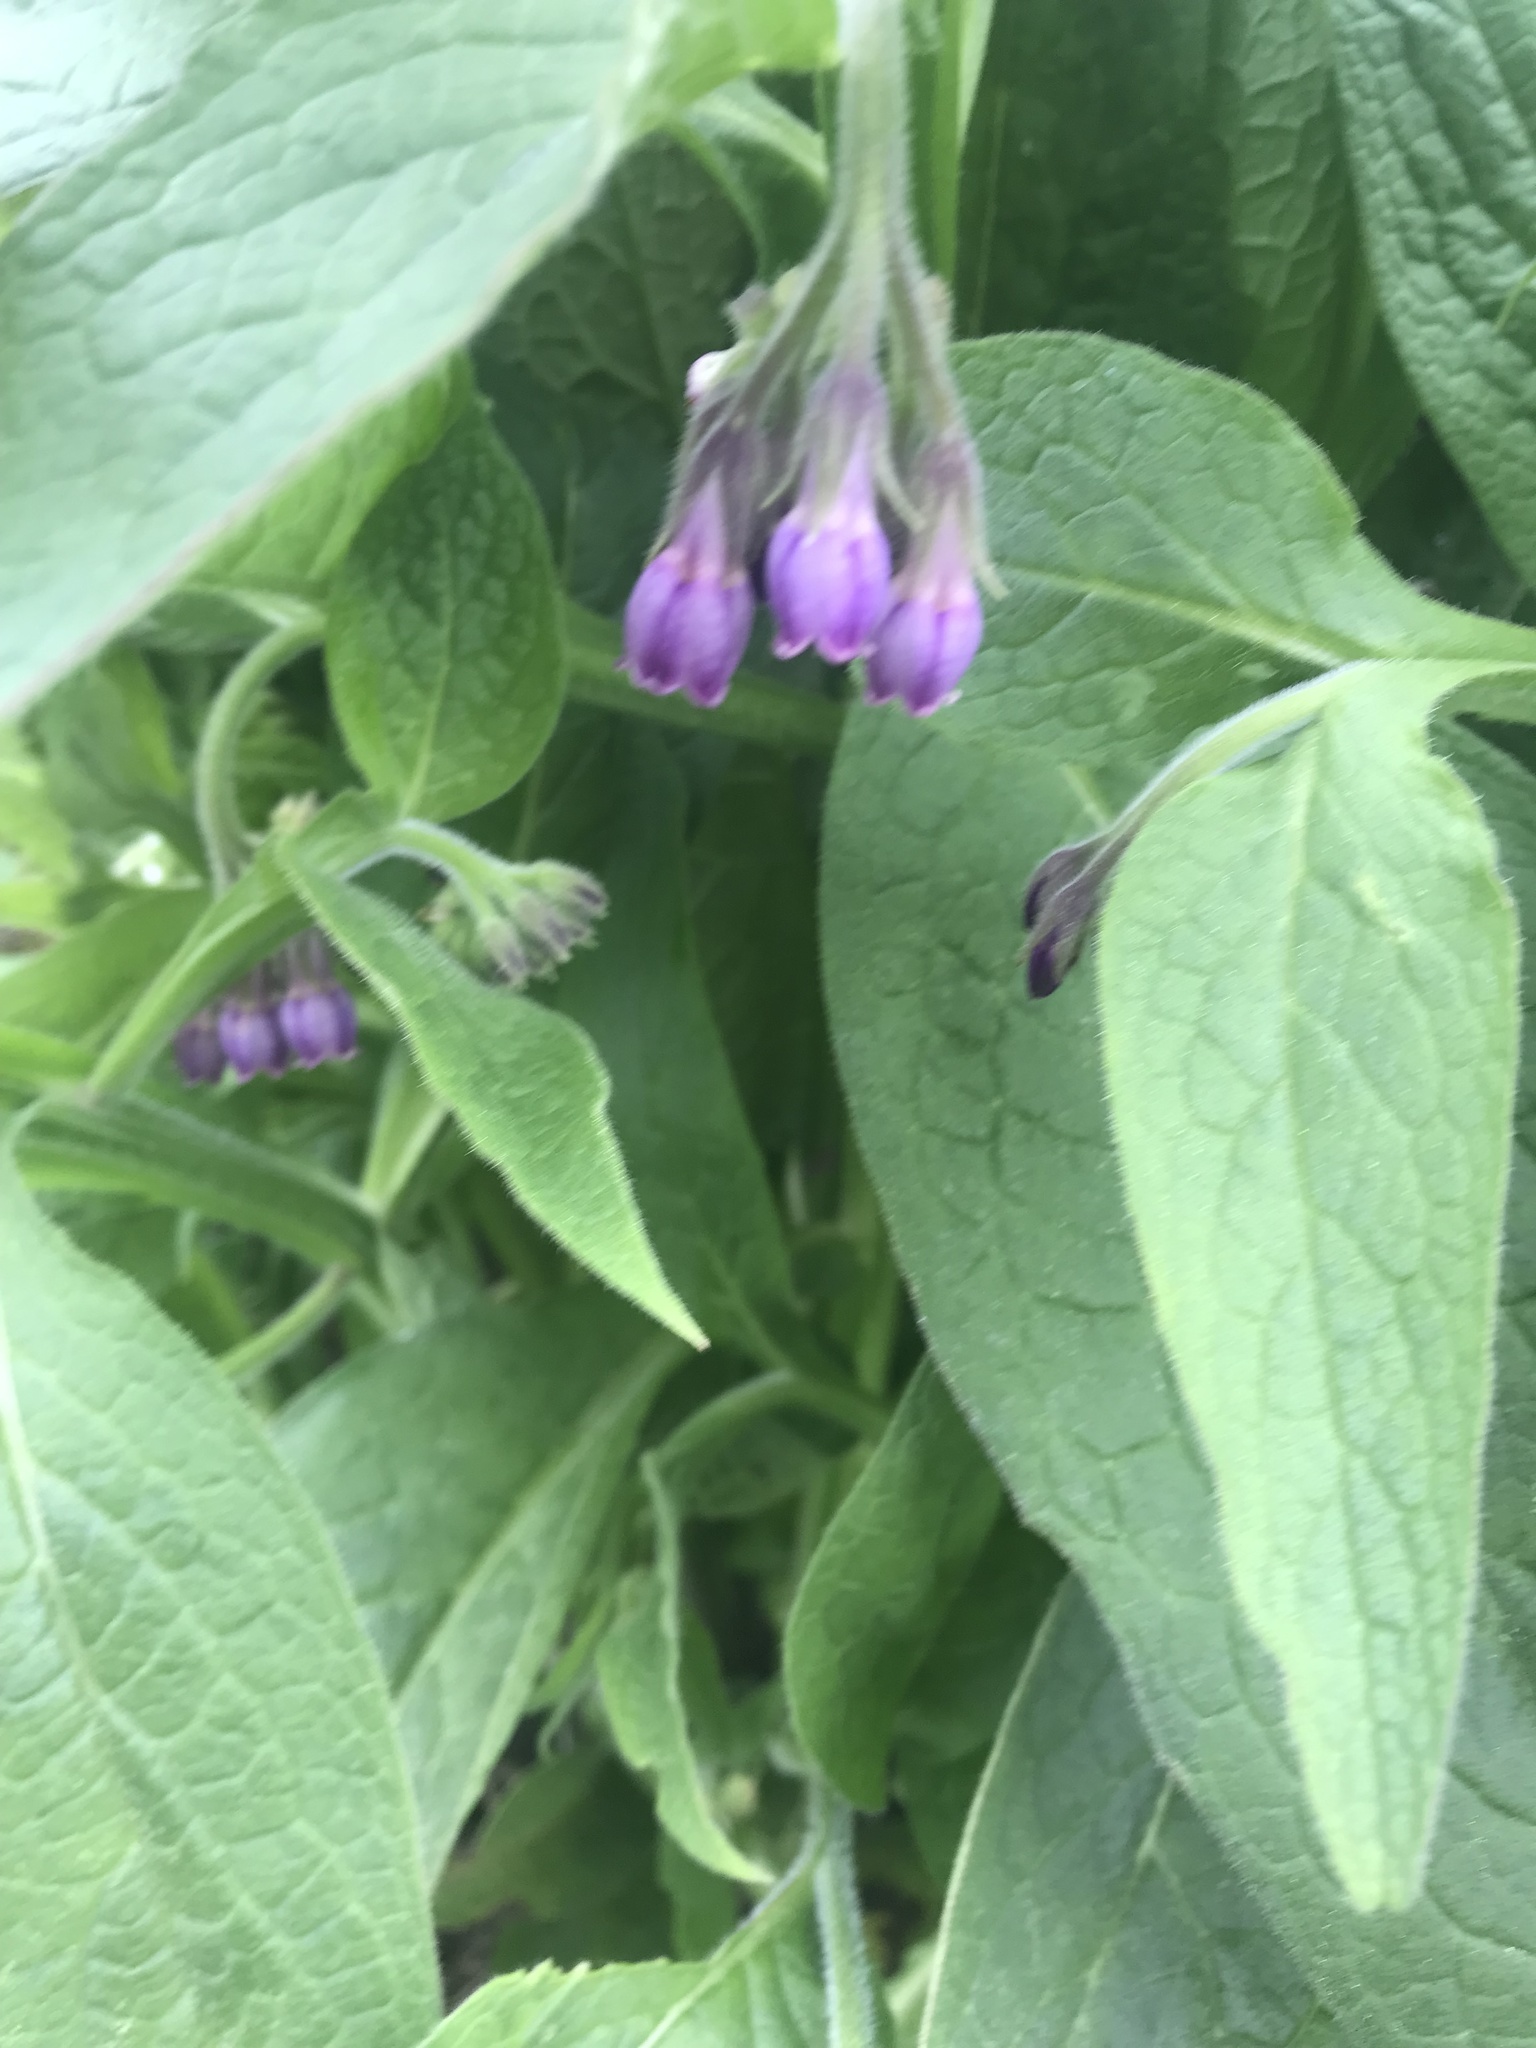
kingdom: Plantae
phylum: Tracheophyta
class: Magnoliopsida
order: Boraginales
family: Boraginaceae
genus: Symphytum
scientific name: Symphytum officinale
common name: Common comfrey
